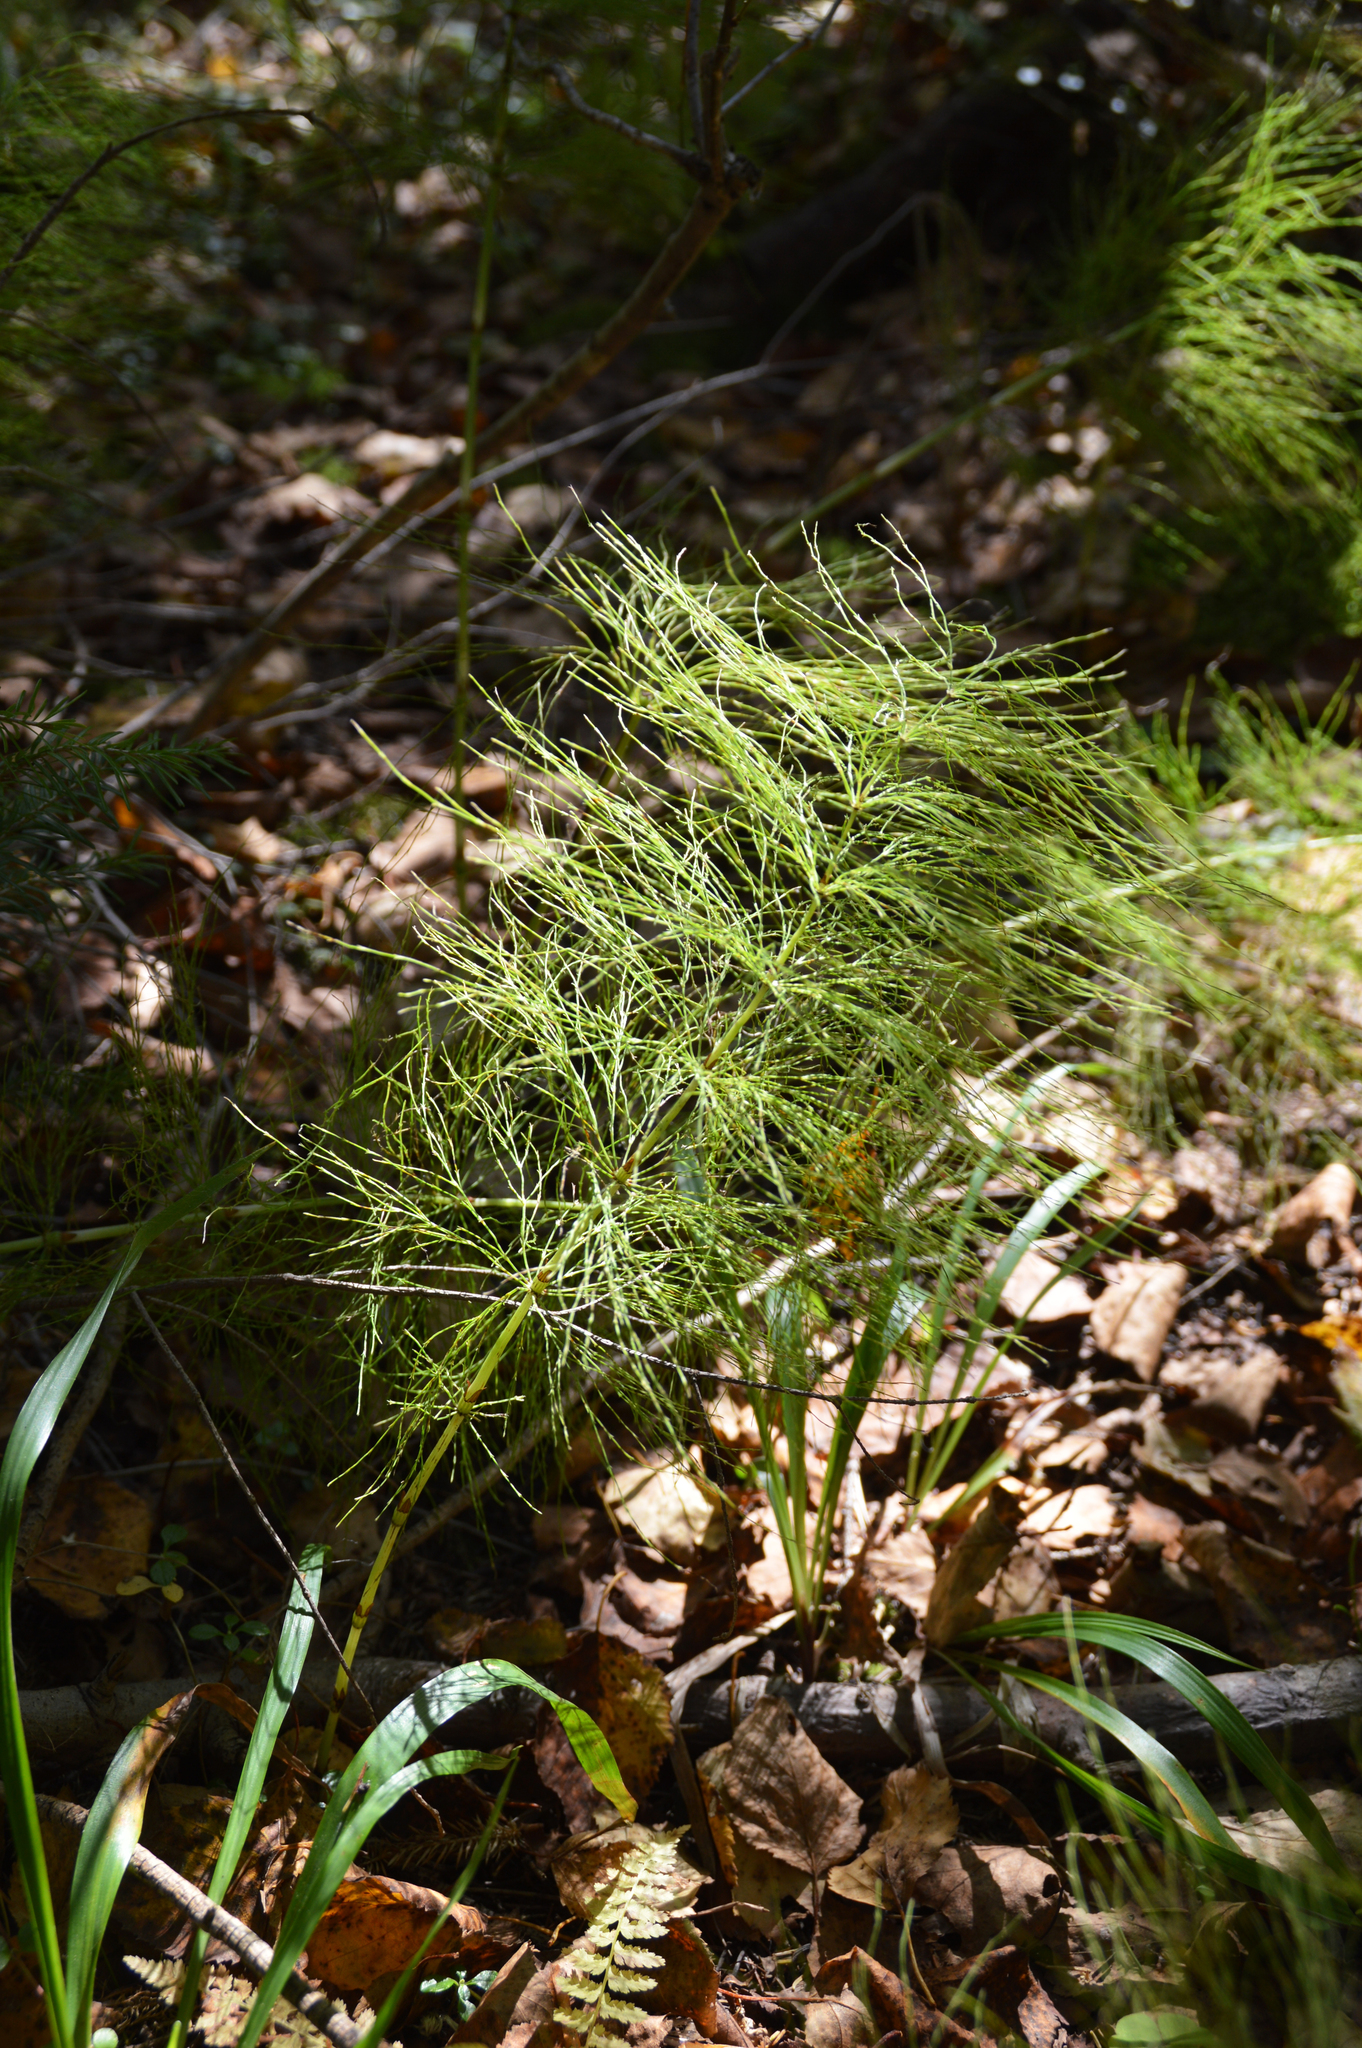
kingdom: Plantae
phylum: Tracheophyta
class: Polypodiopsida
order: Equisetales
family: Equisetaceae
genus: Equisetum
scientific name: Equisetum sylvaticum
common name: Wood horsetail
